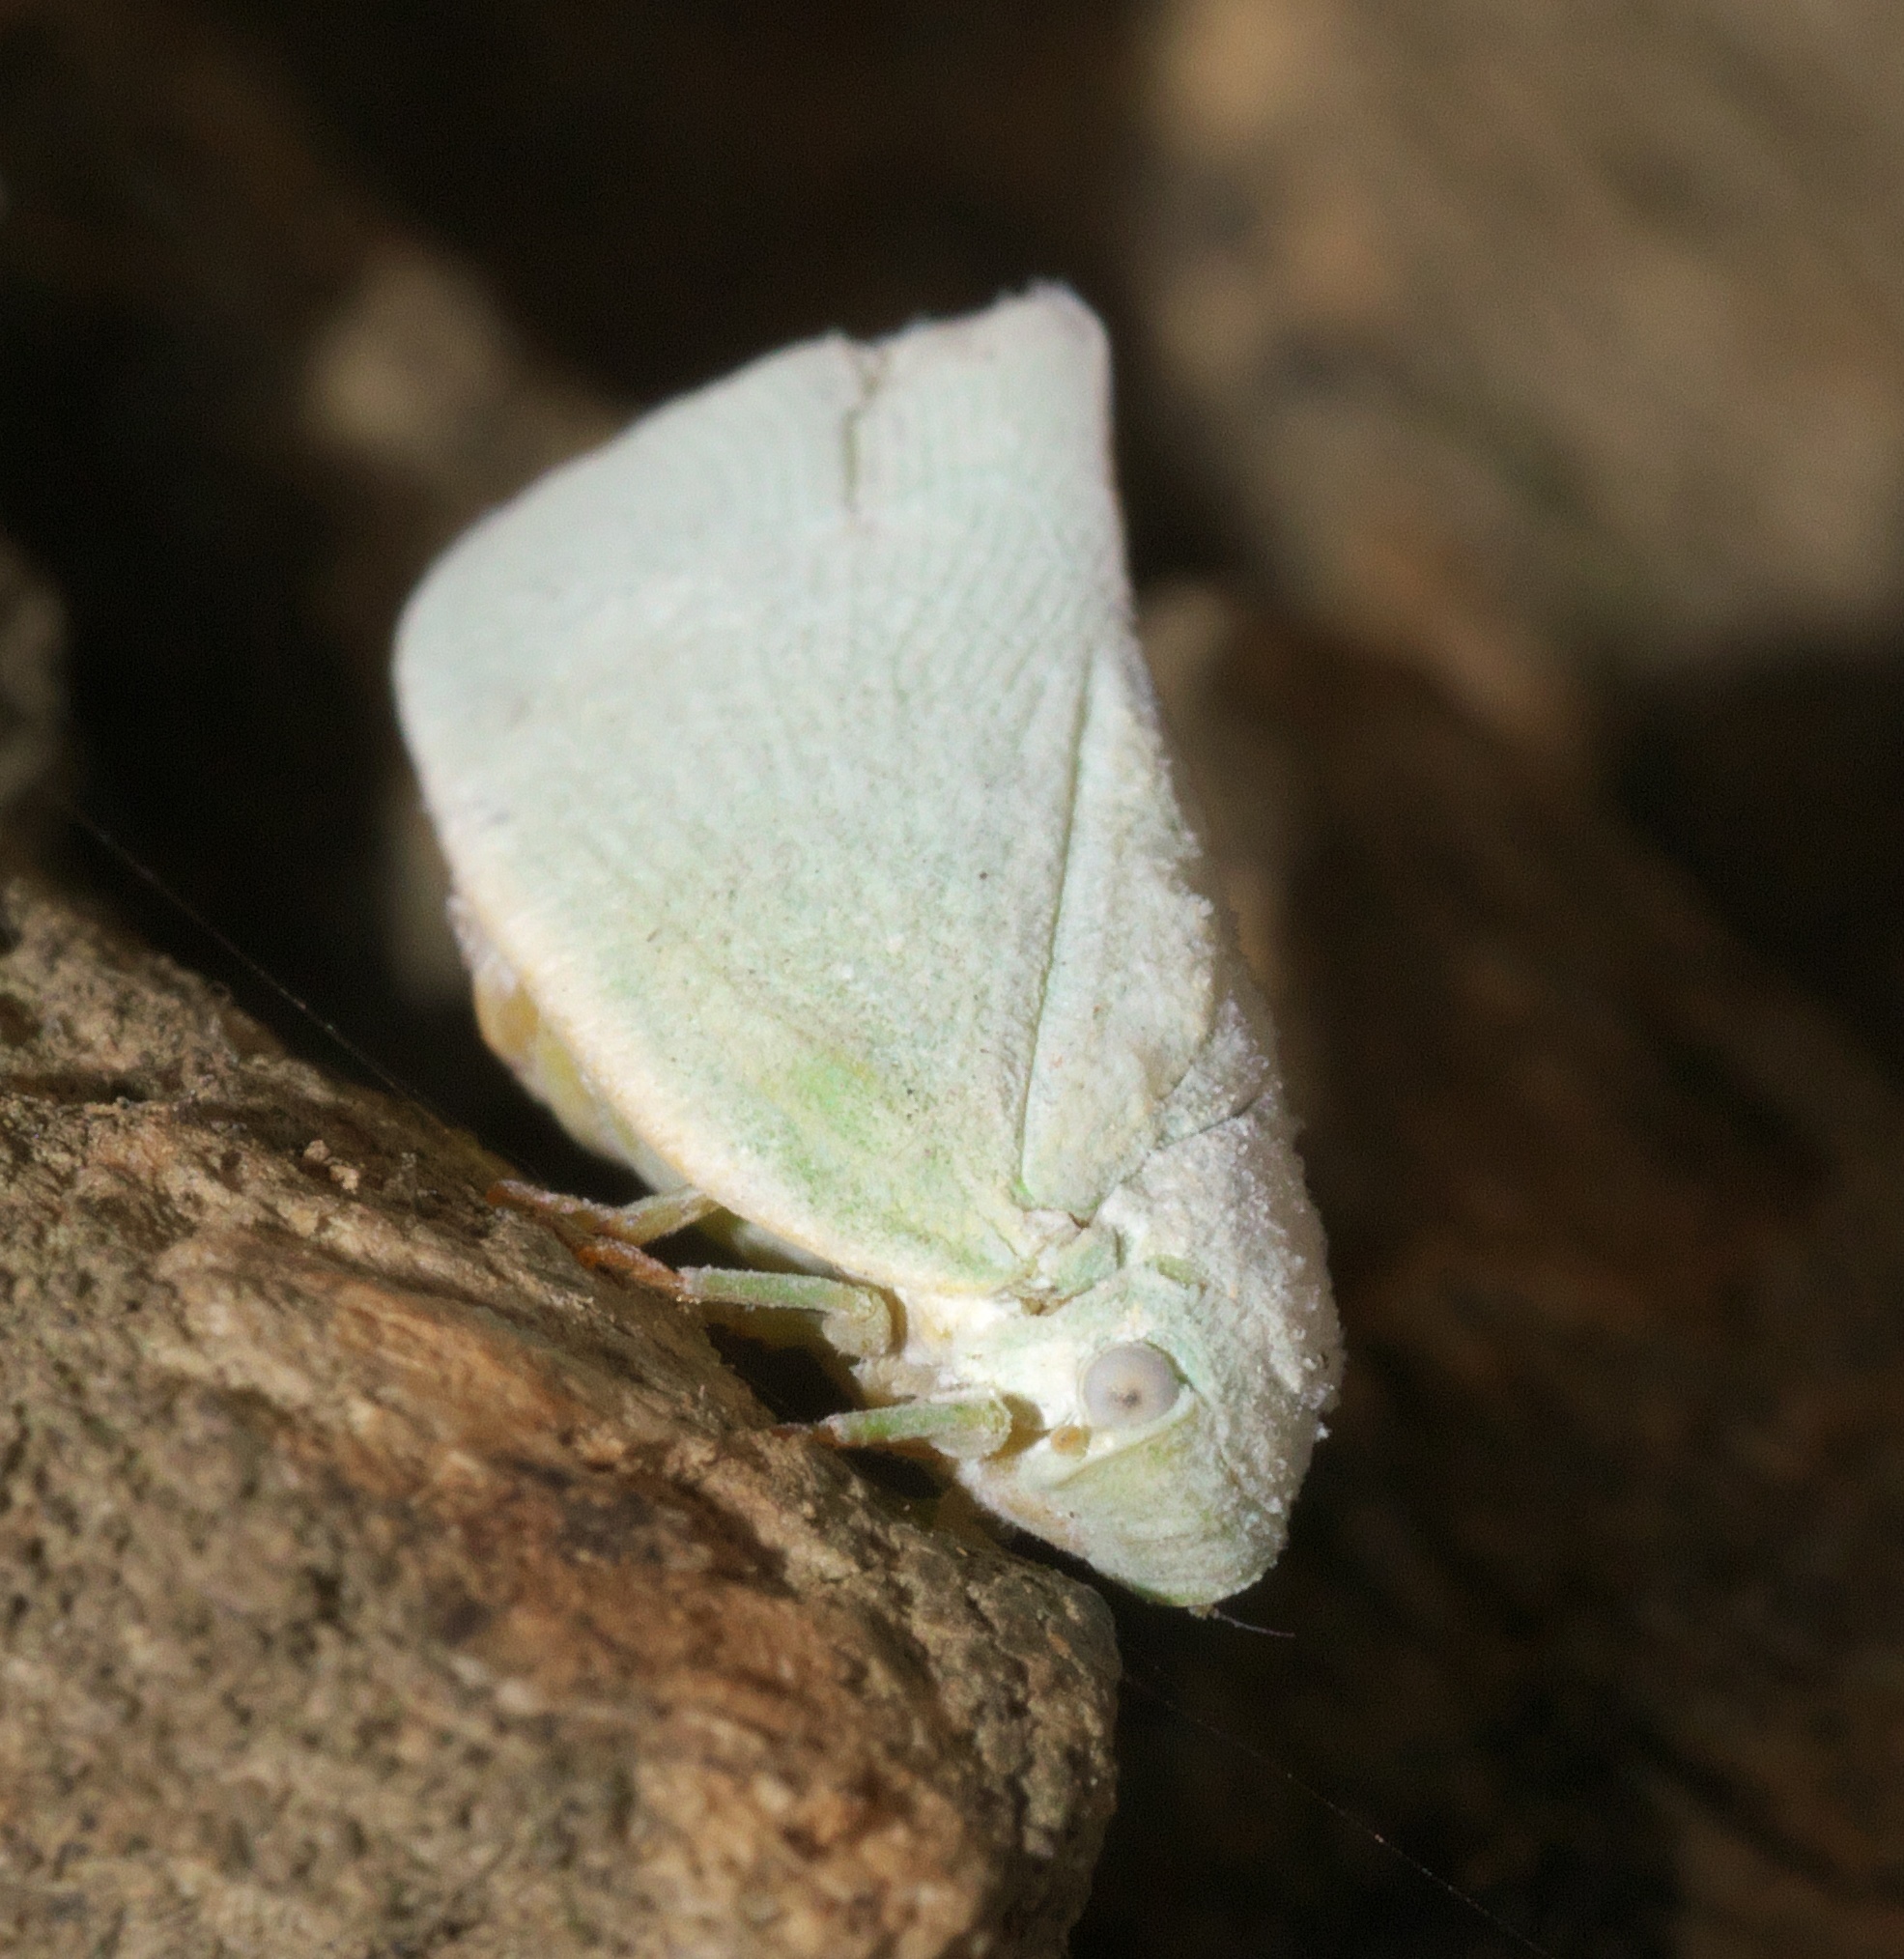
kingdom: Animalia
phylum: Arthropoda
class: Insecta
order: Hemiptera
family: Flatidae
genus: Flatormenis
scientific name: Flatormenis proxima
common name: Northern flatid planthopper
